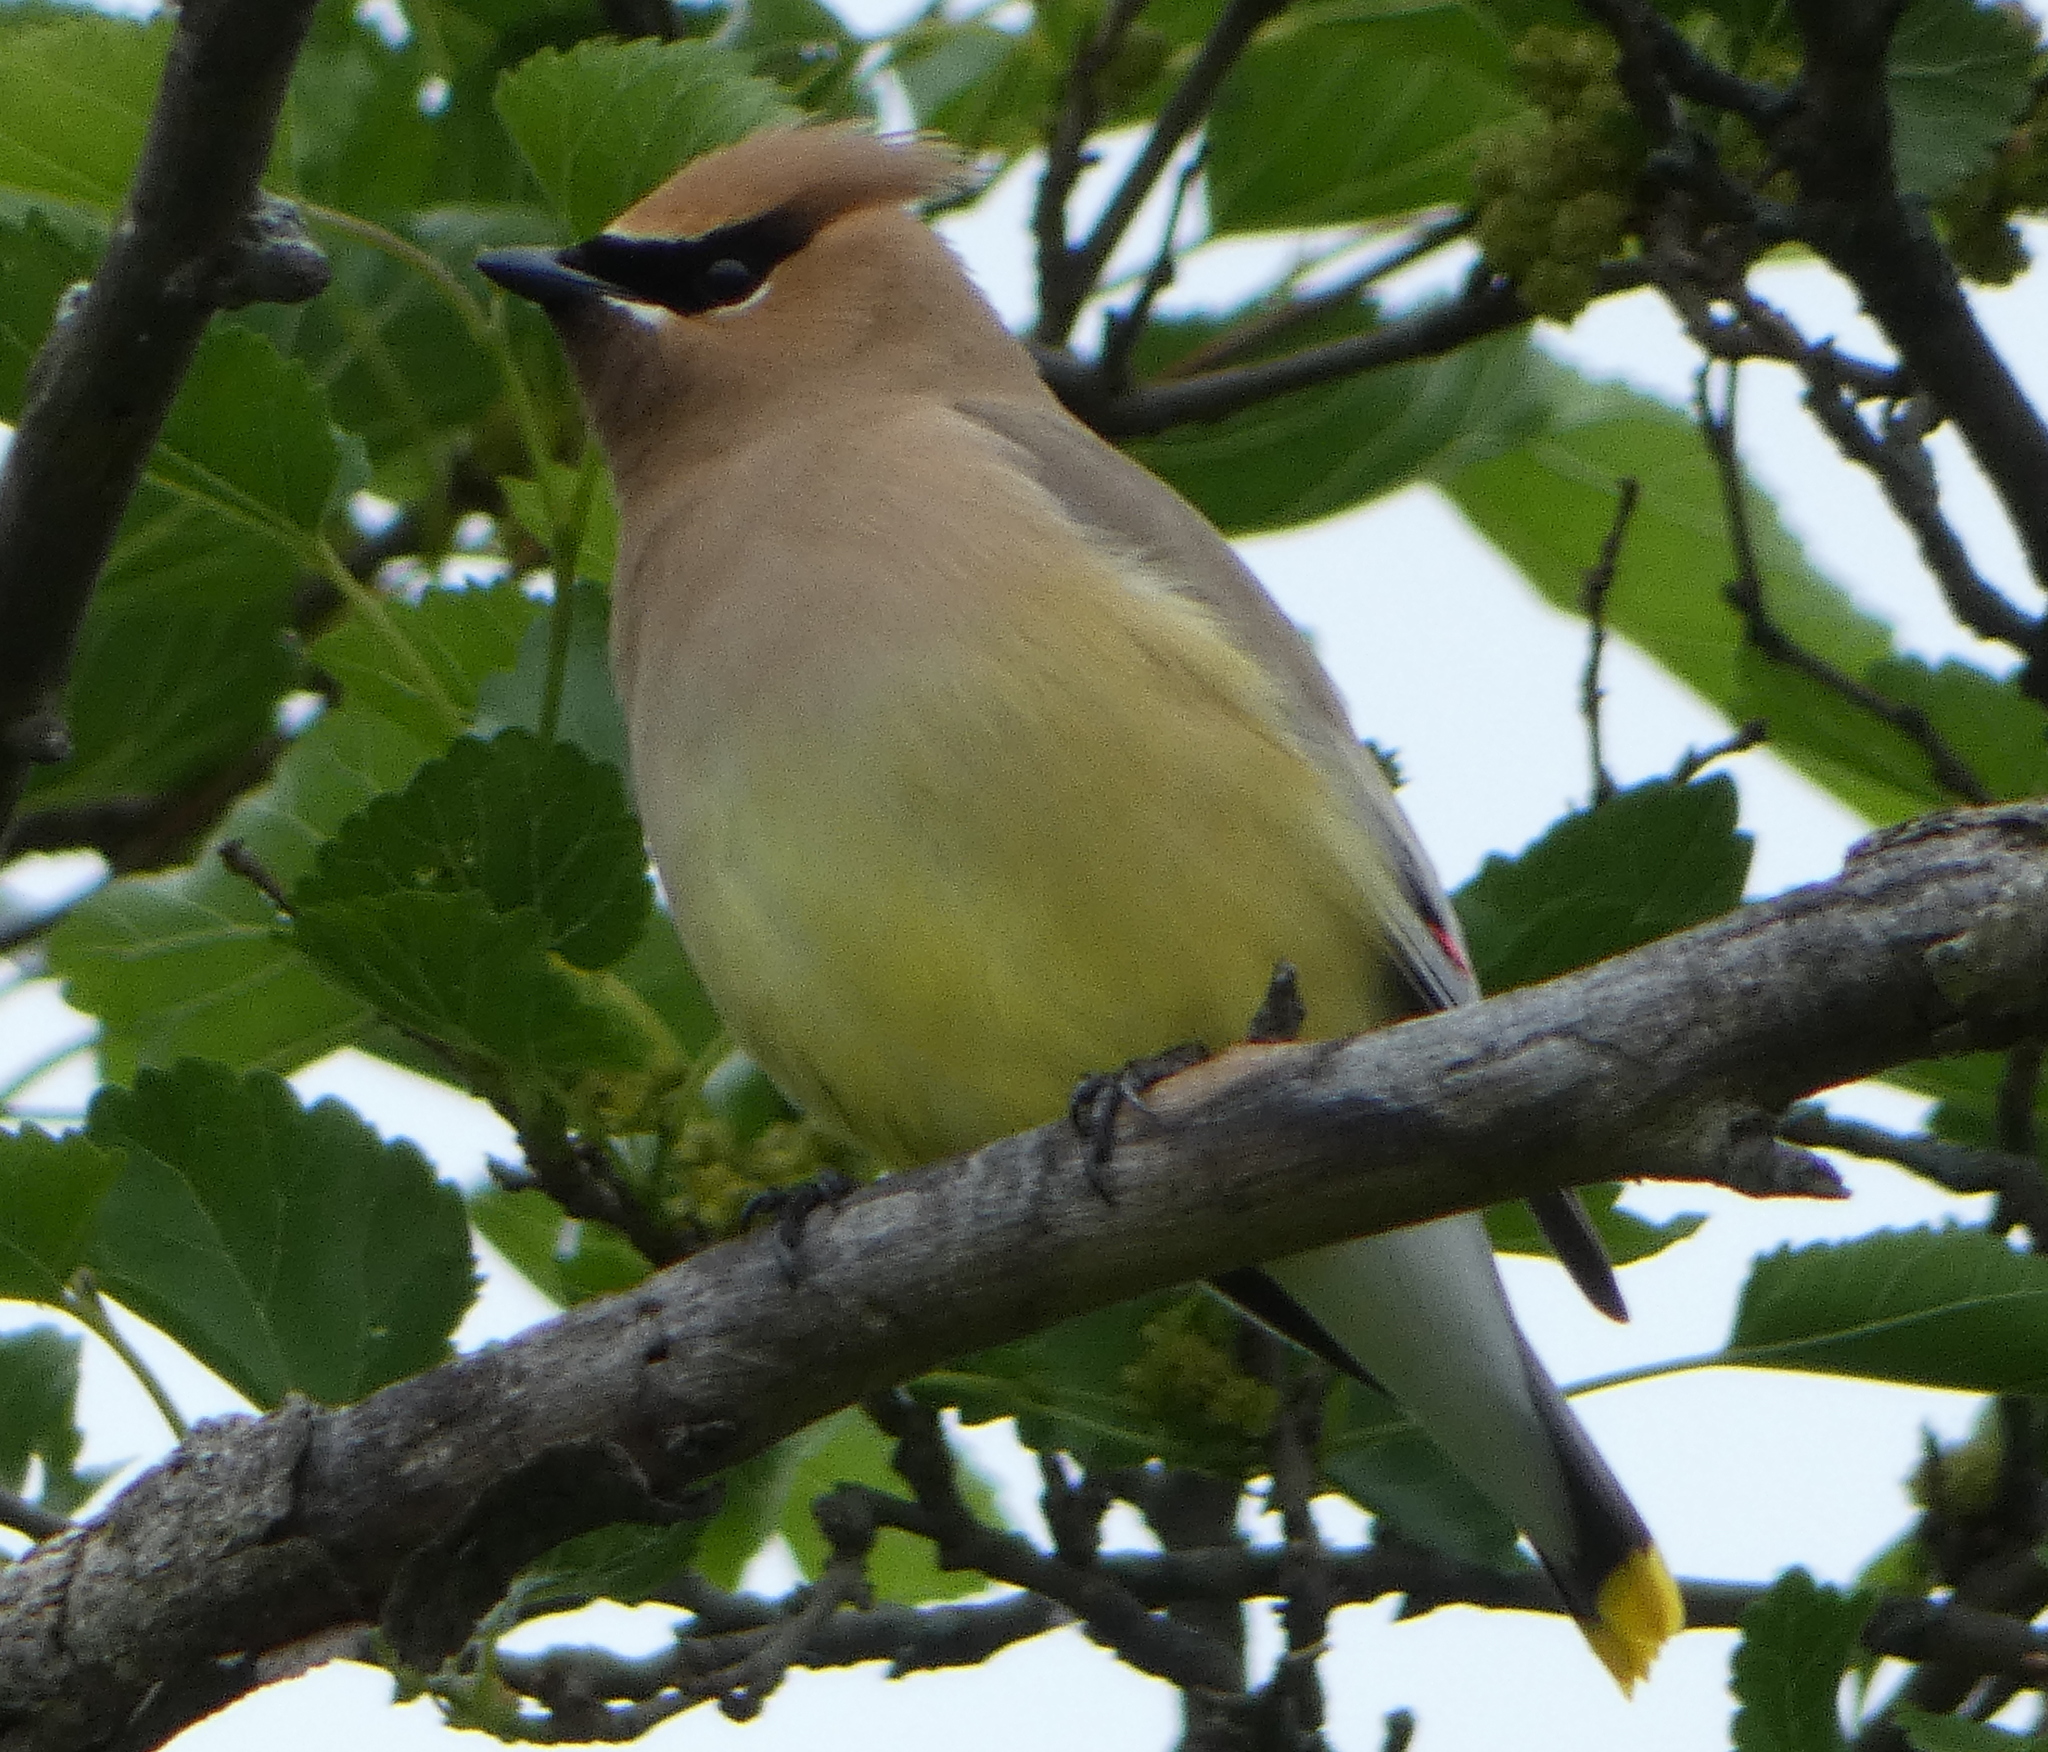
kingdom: Animalia
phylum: Chordata
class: Aves
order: Passeriformes
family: Bombycillidae
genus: Bombycilla
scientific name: Bombycilla cedrorum
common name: Cedar waxwing
